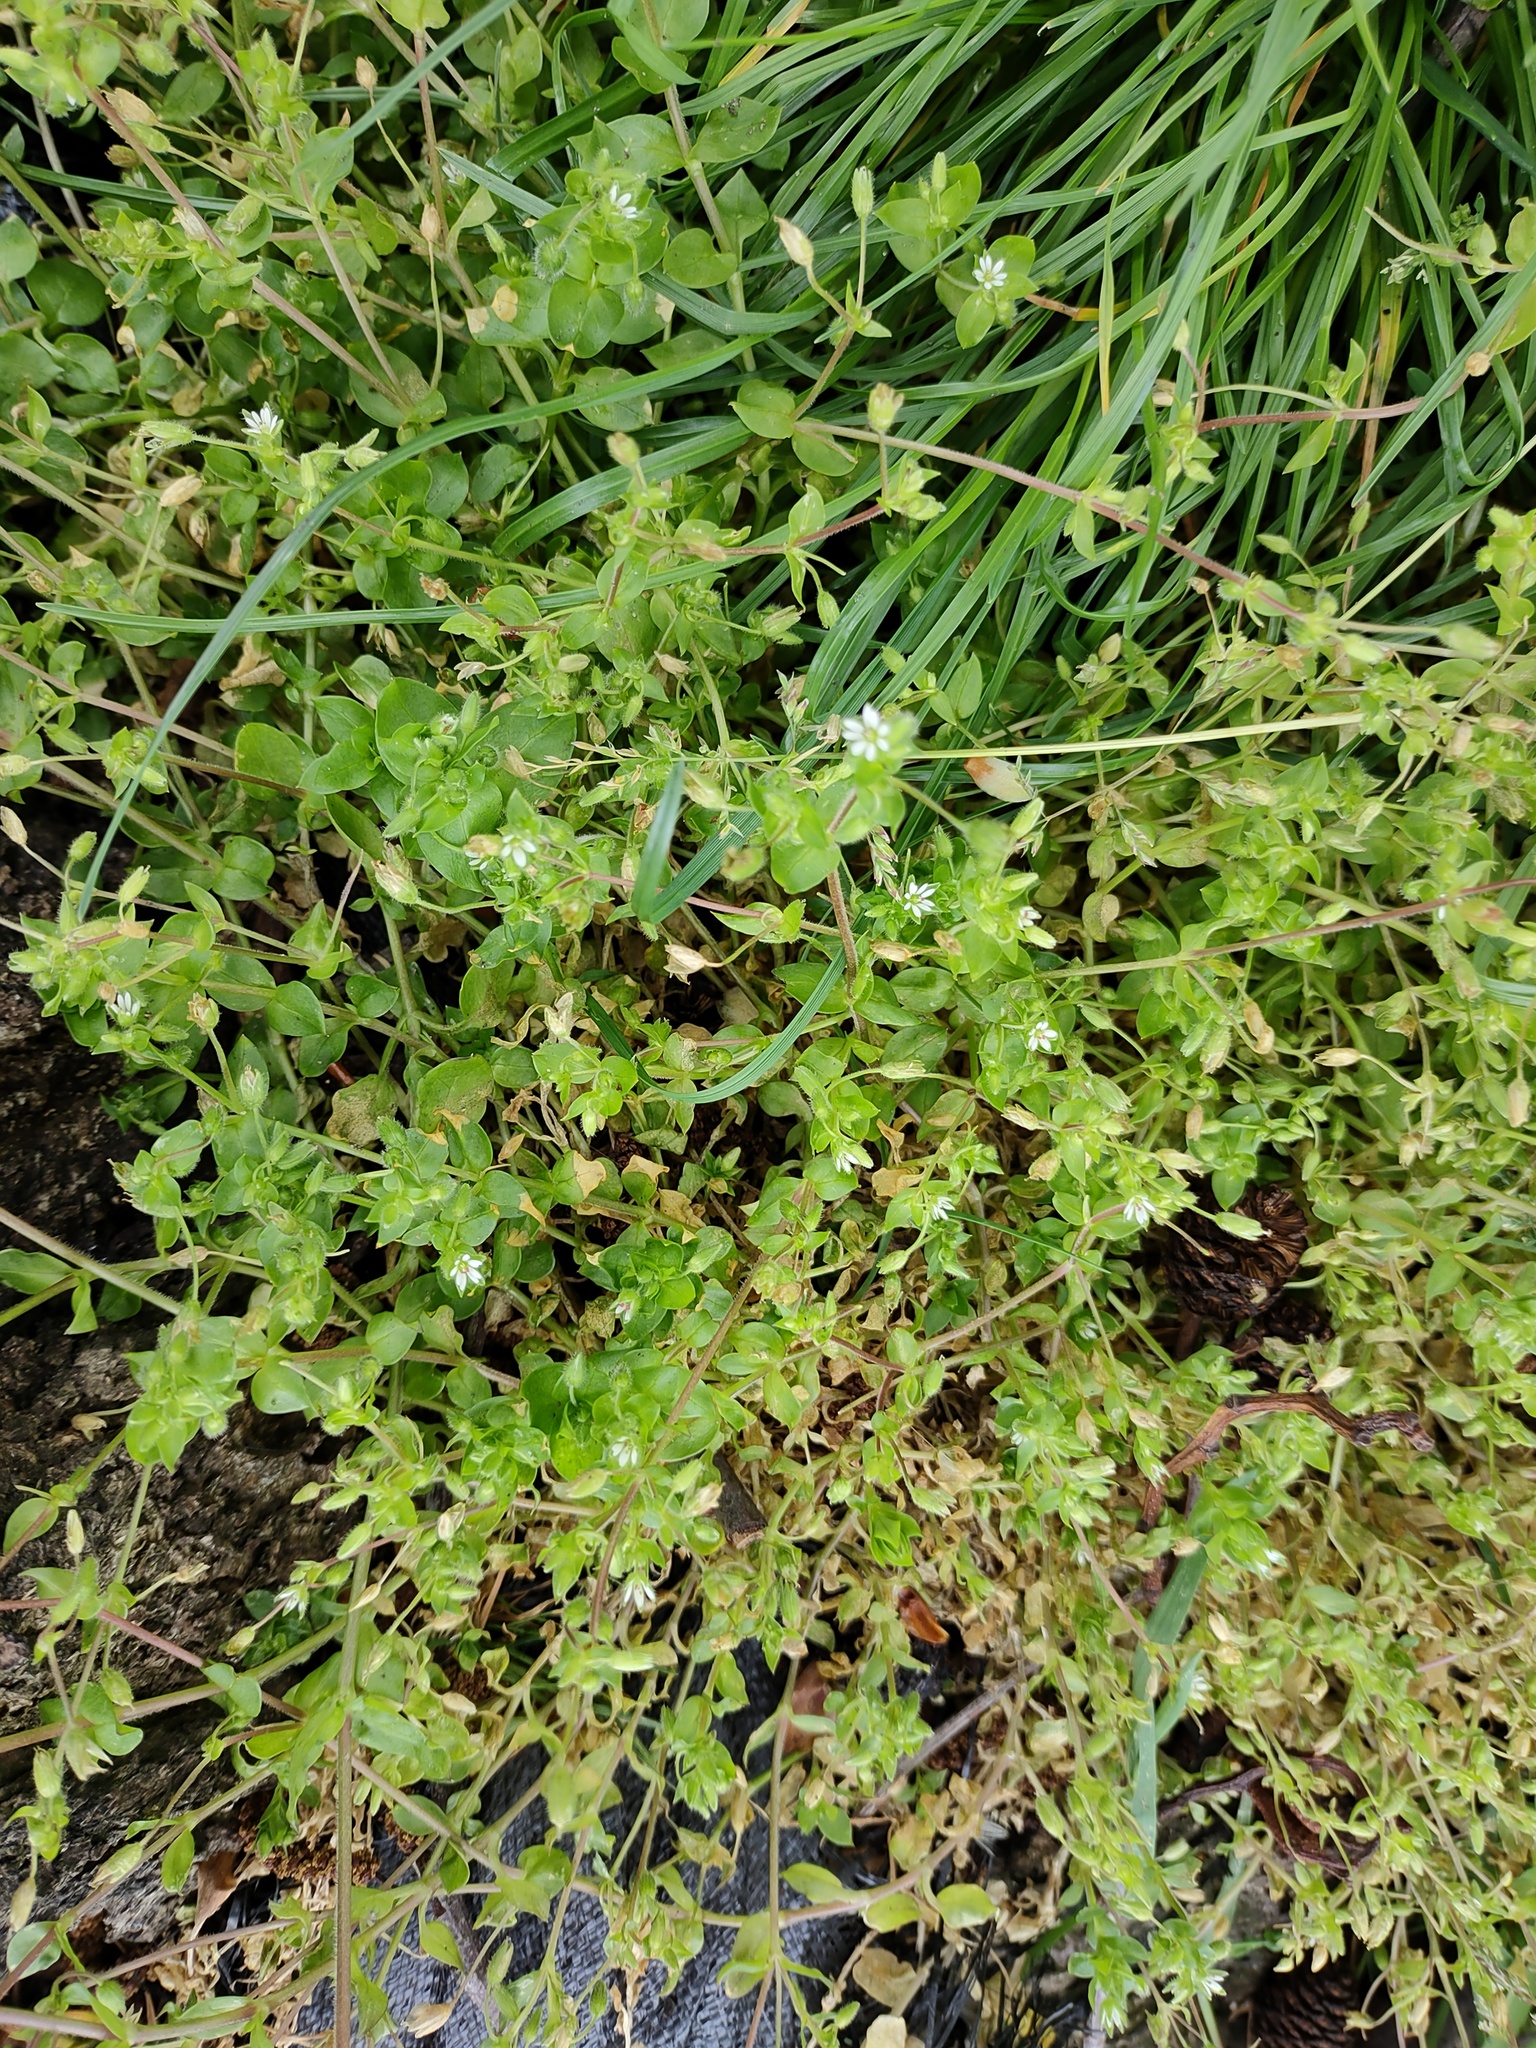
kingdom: Plantae
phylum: Tracheophyta
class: Magnoliopsida
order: Caryophyllales
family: Caryophyllaceae
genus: Stellaria
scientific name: Stellaria media
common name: Common chickweed
